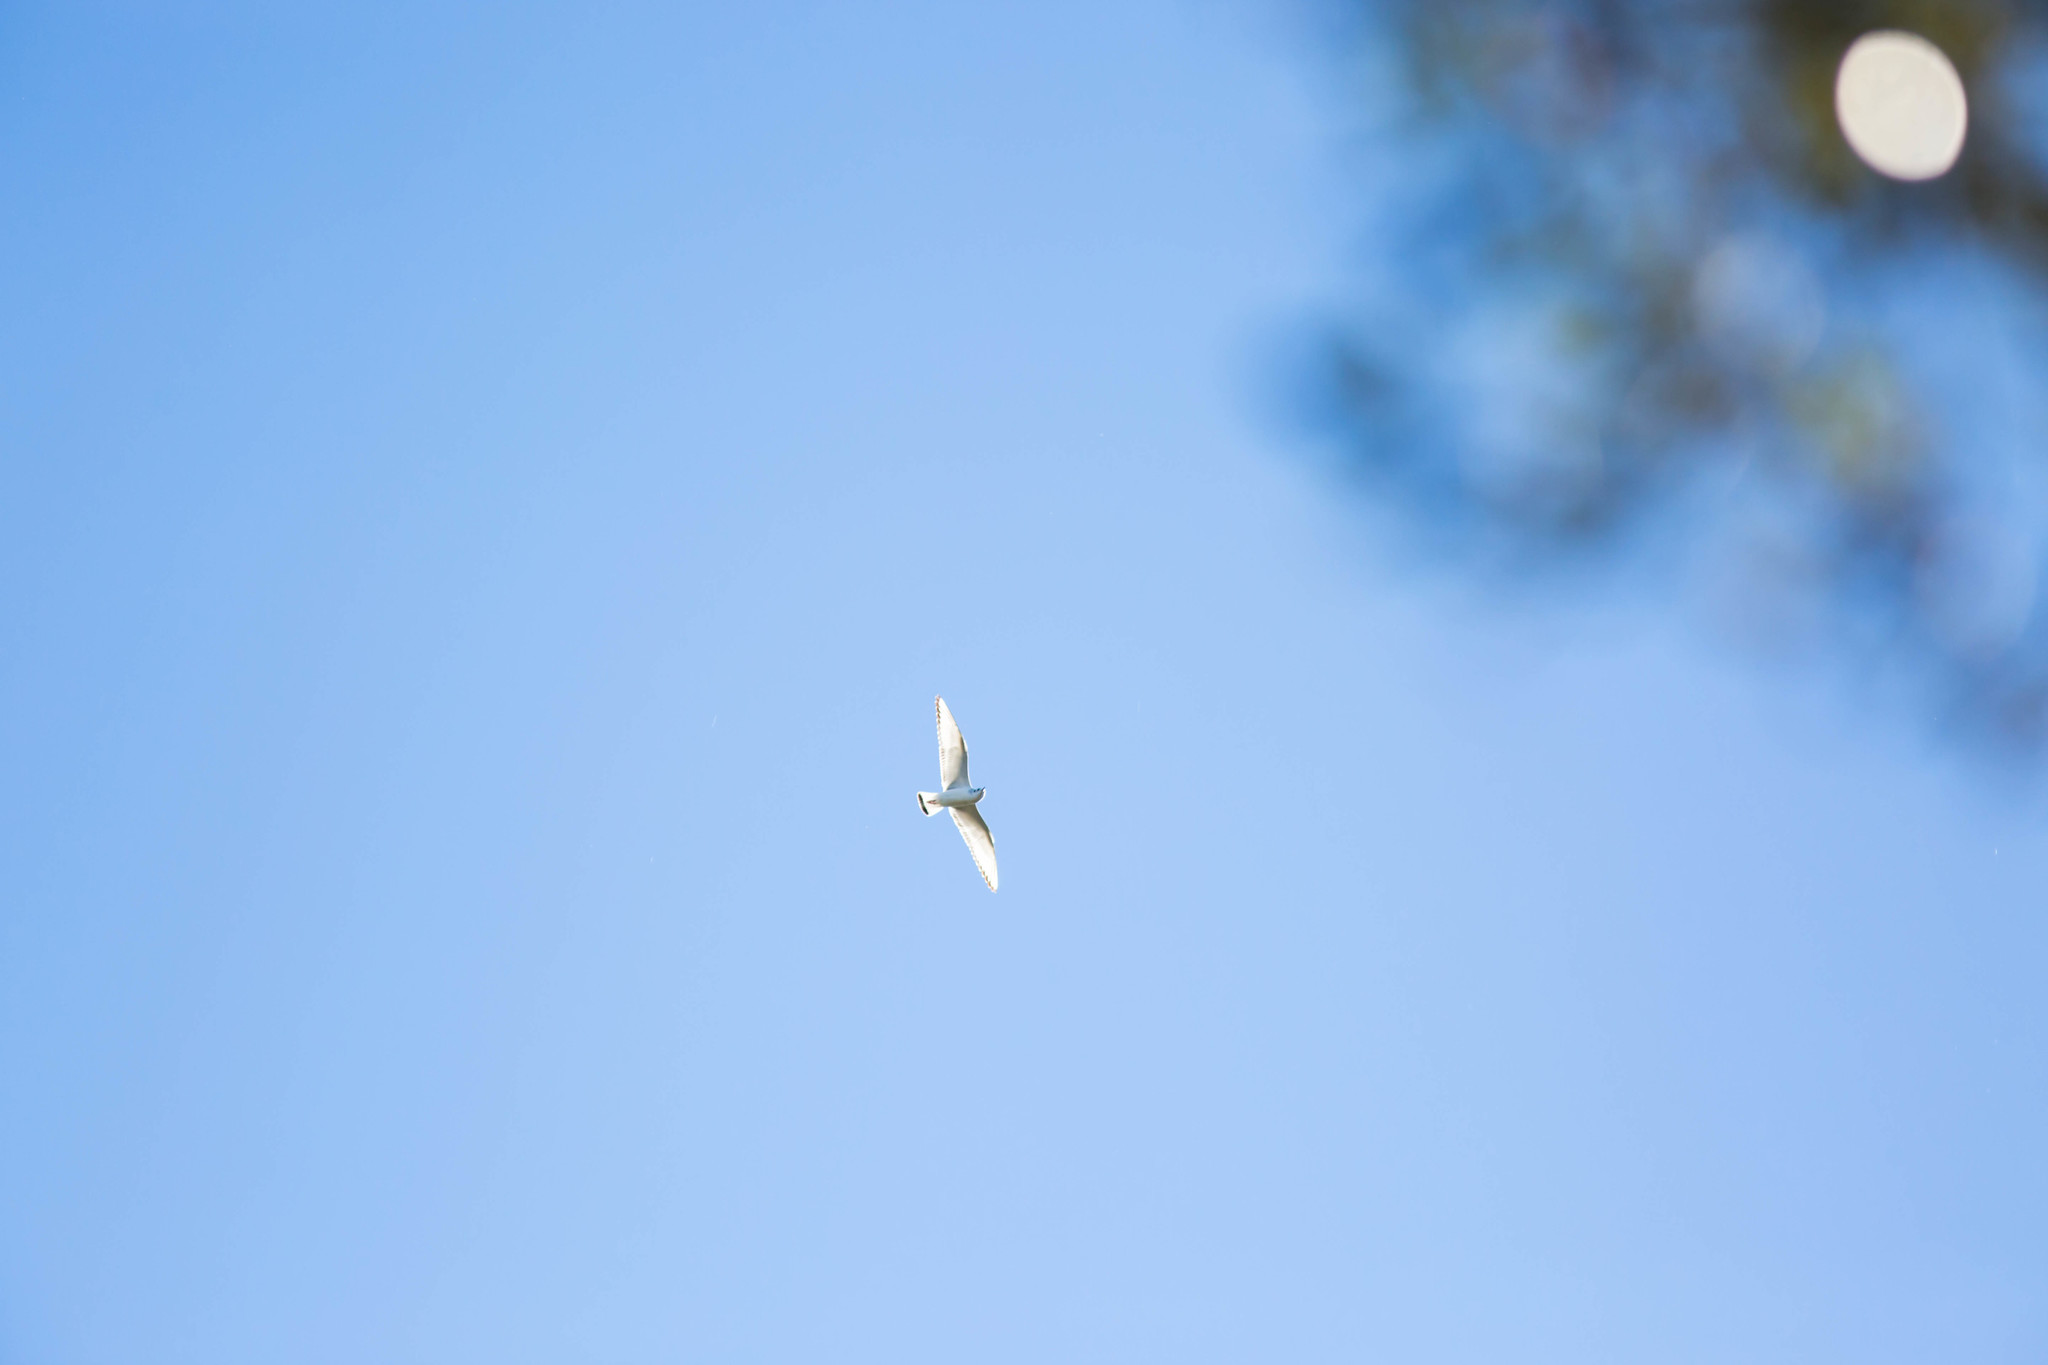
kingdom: Animalia
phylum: Chordata
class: Aves
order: Charadriiformes
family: Laridae
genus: Chroicocephalus
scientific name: Chroicocephalus philadelphia
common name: Bonaparte's gull
